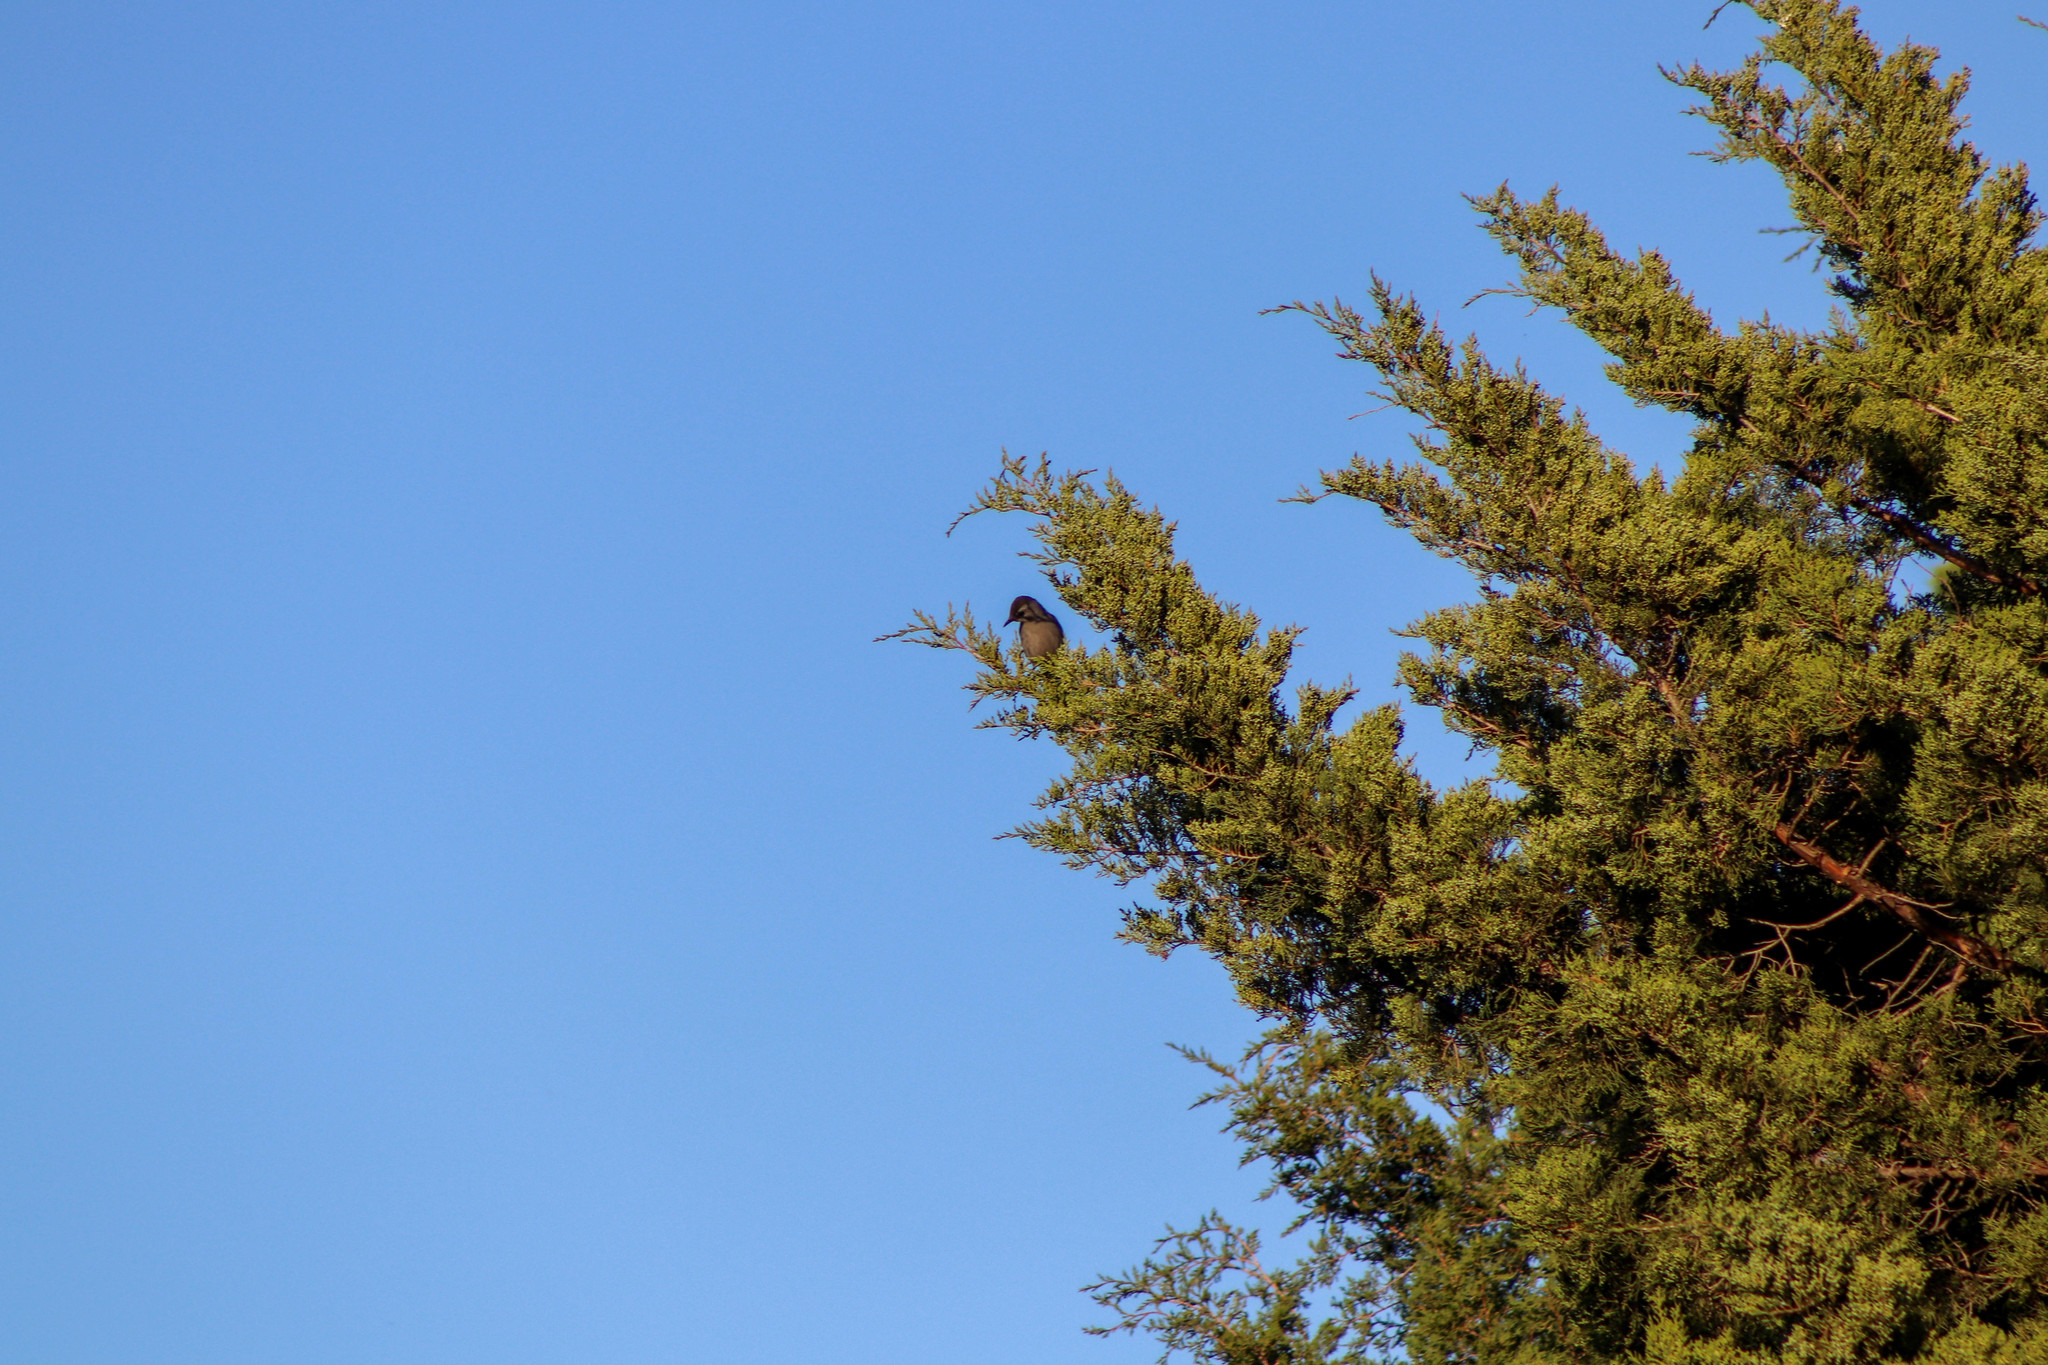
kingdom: Animalia
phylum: Chordata
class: Aves
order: Passeriformes
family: Mimidae
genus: Dumetella
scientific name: Dumetella carolinensis
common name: Gray catbird
